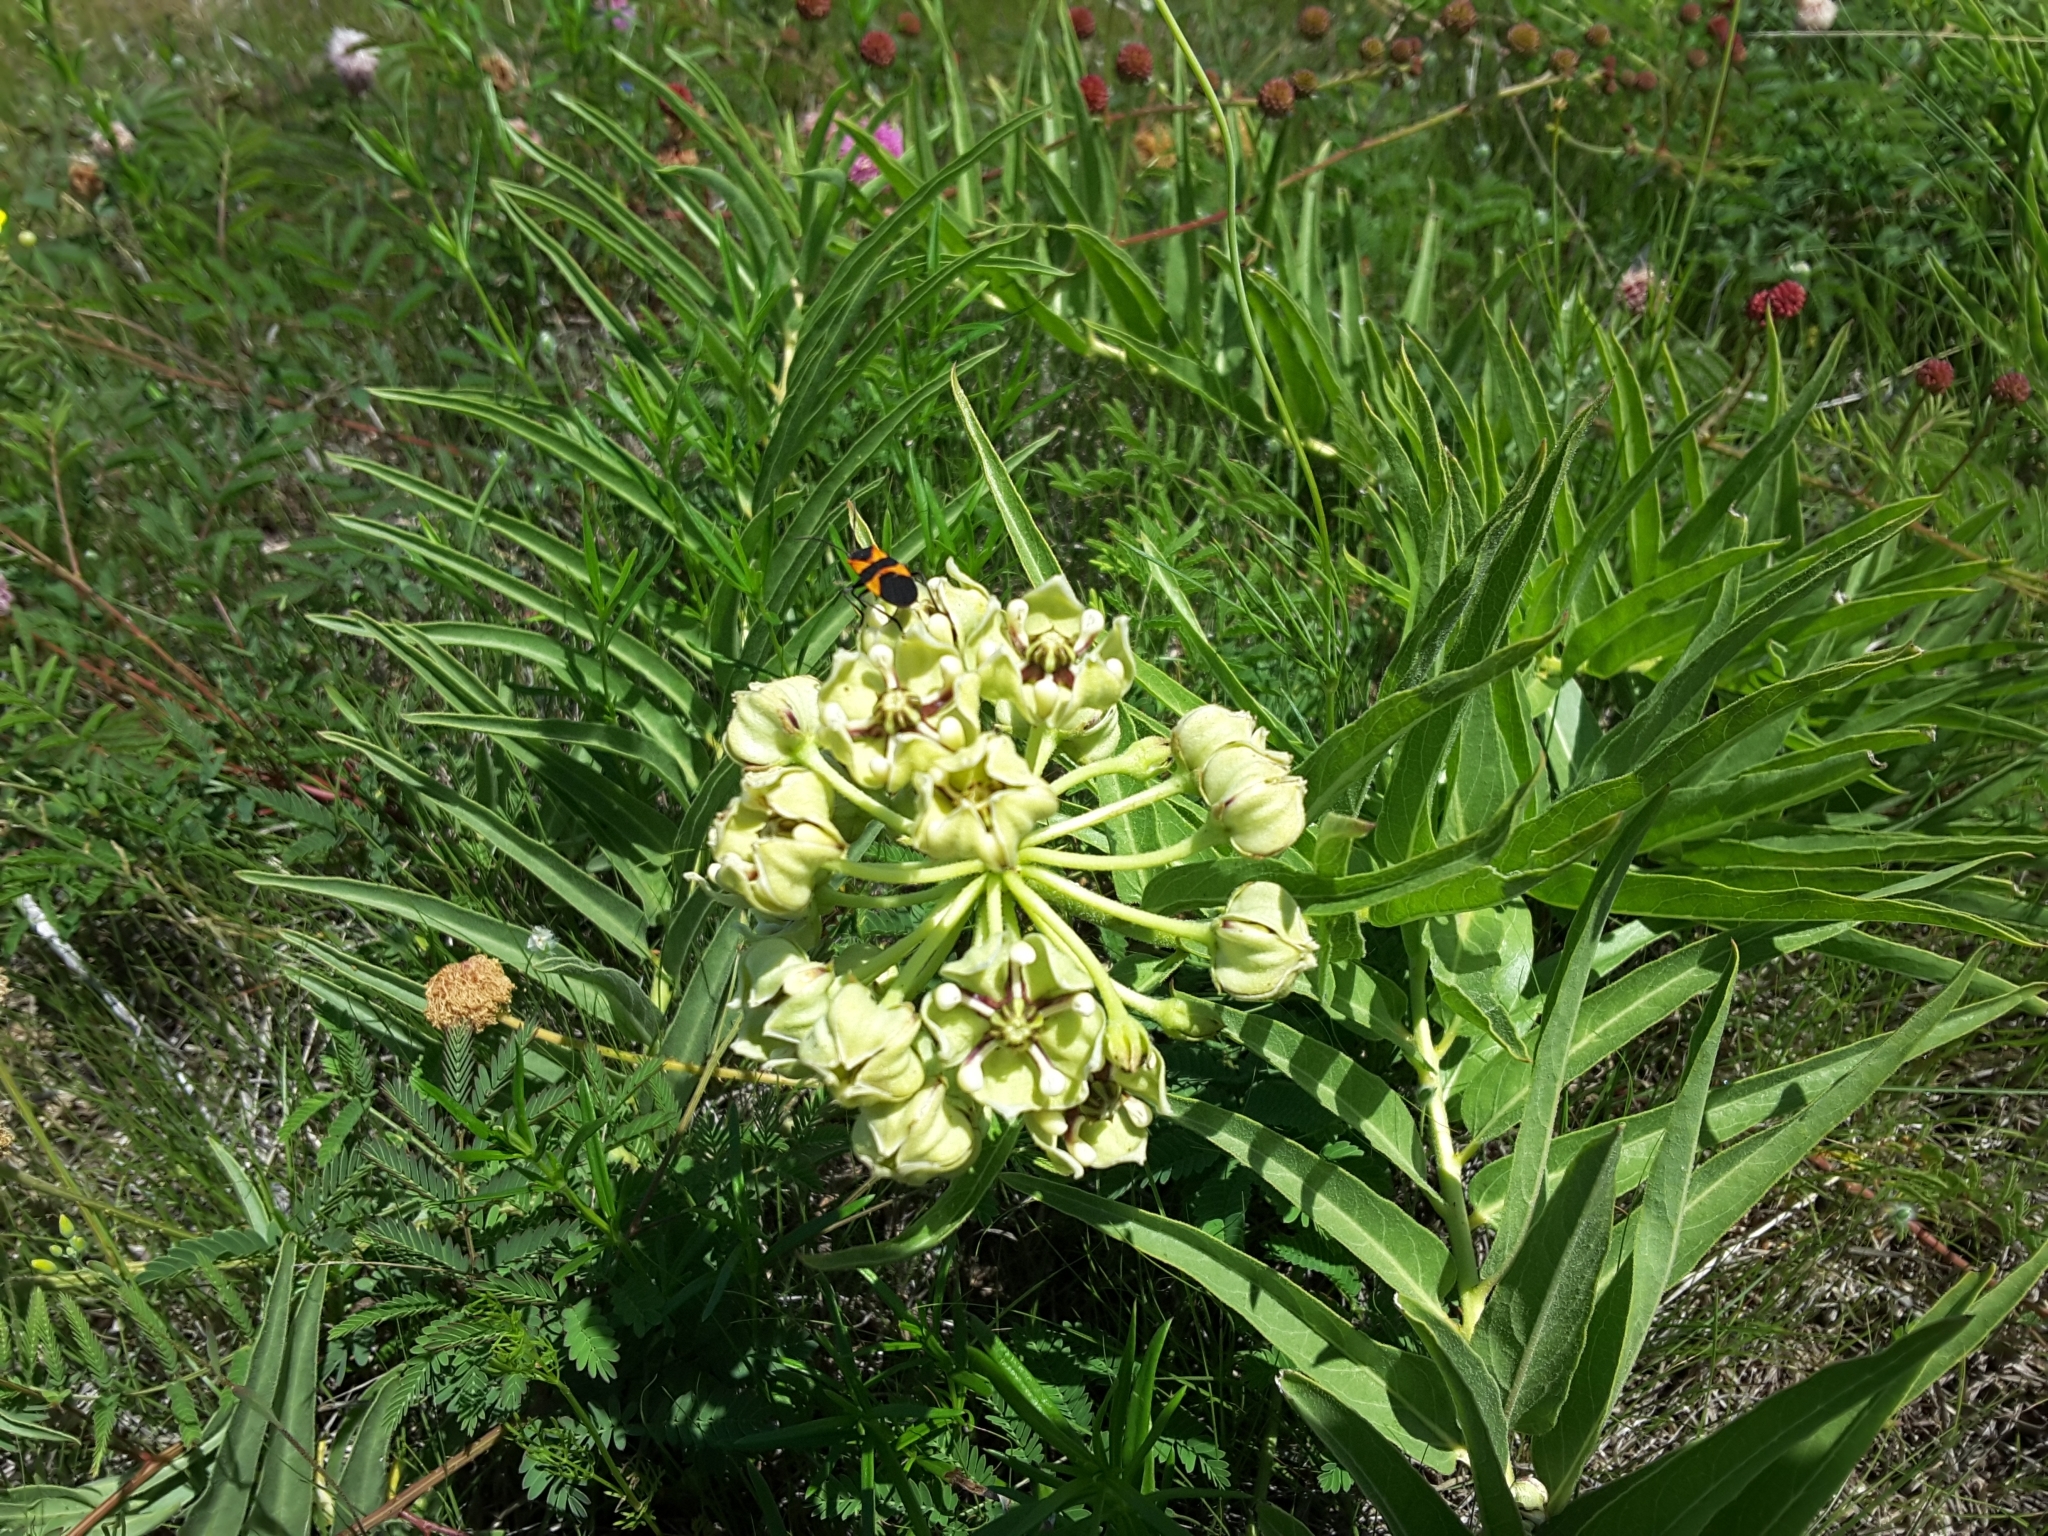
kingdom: Plantae
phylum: Tracheophyta
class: Magnoliopsida
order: Gentianales
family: Apocynaceae
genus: Asclepias
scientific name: Asclepias asperula
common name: Antelope horns
